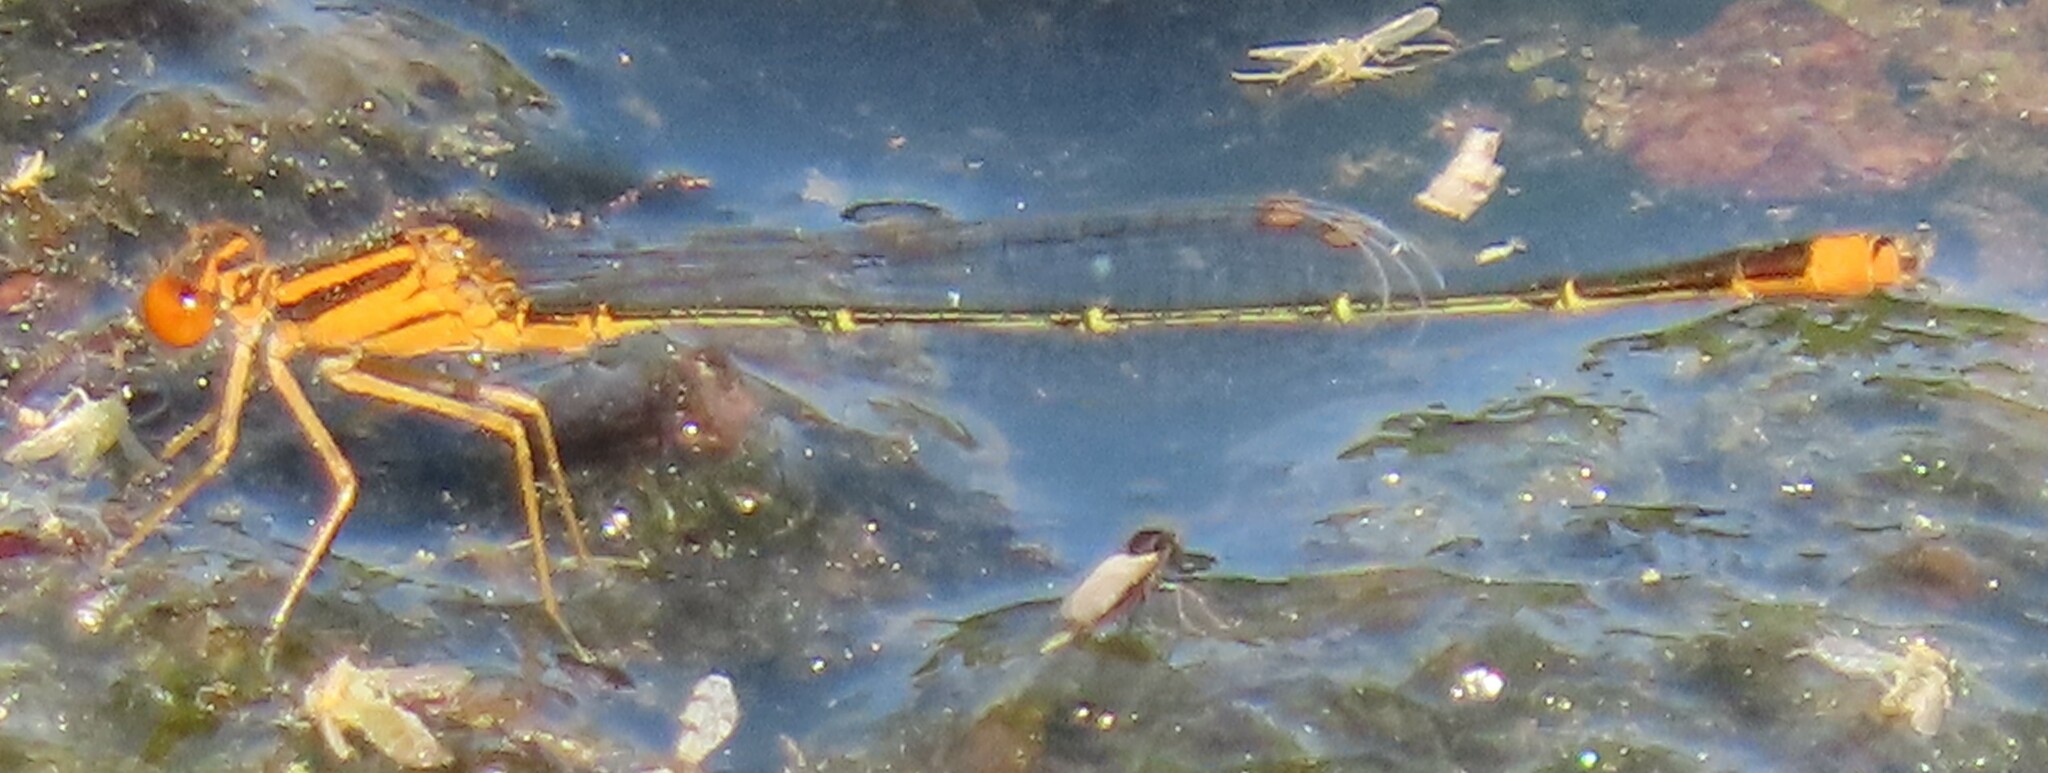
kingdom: Animalia
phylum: Arthropoda
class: Insecta
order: Odonata
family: Coenagrionidae
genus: Enallagma
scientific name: Enallagma pollutum
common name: Florida bluet
